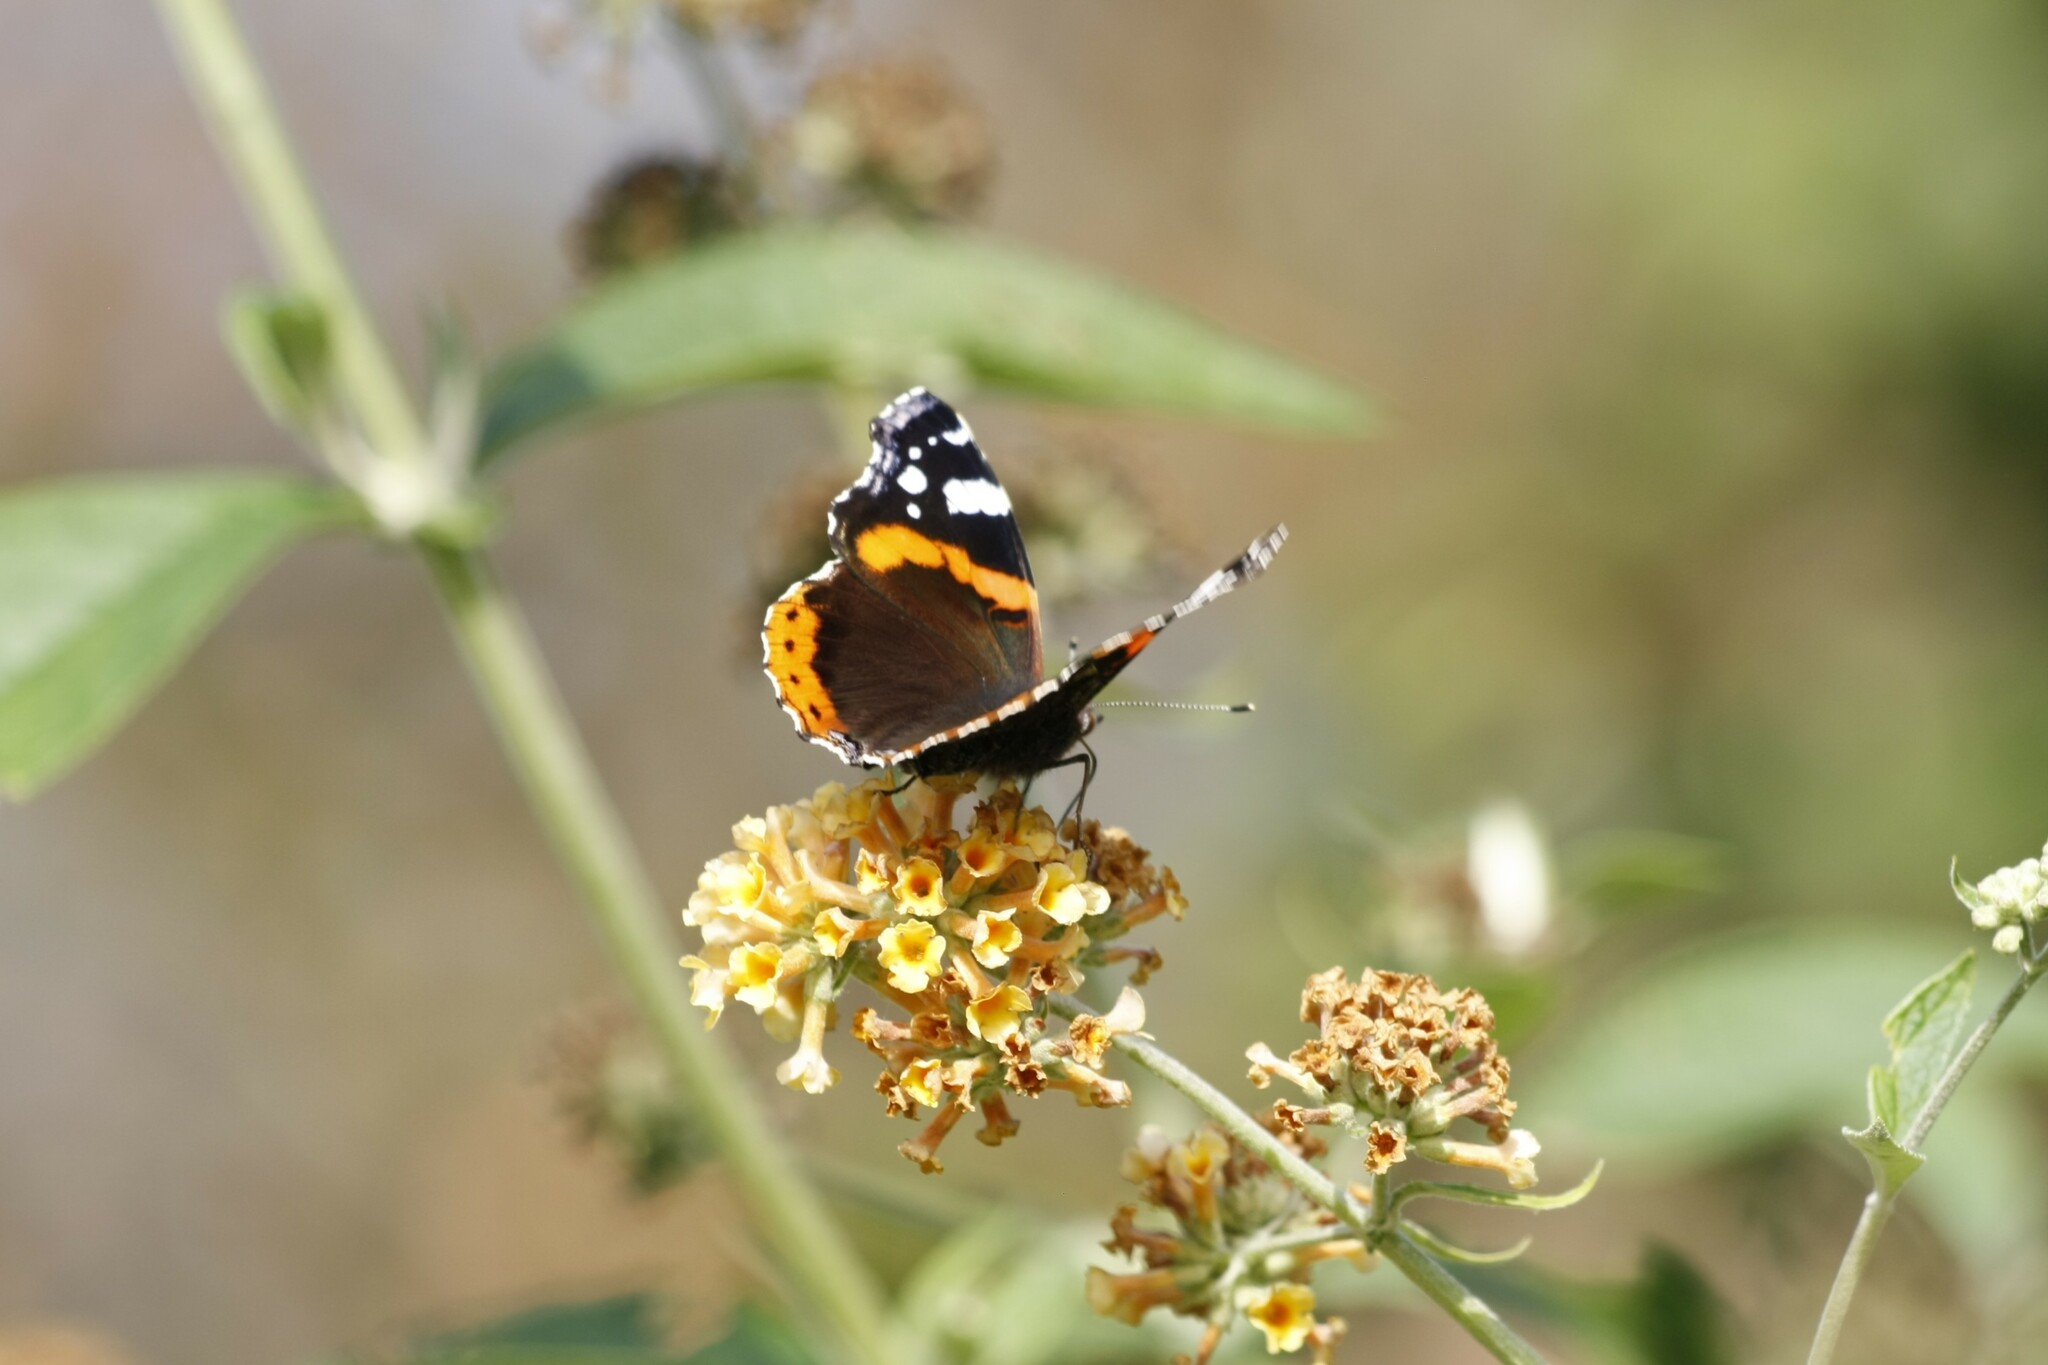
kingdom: Animalia
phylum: Arthropoda
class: Insecta
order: Lepidoptera
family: Nymphalidae
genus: Vanessa
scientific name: Vanessa atalanta
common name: Red admiral
